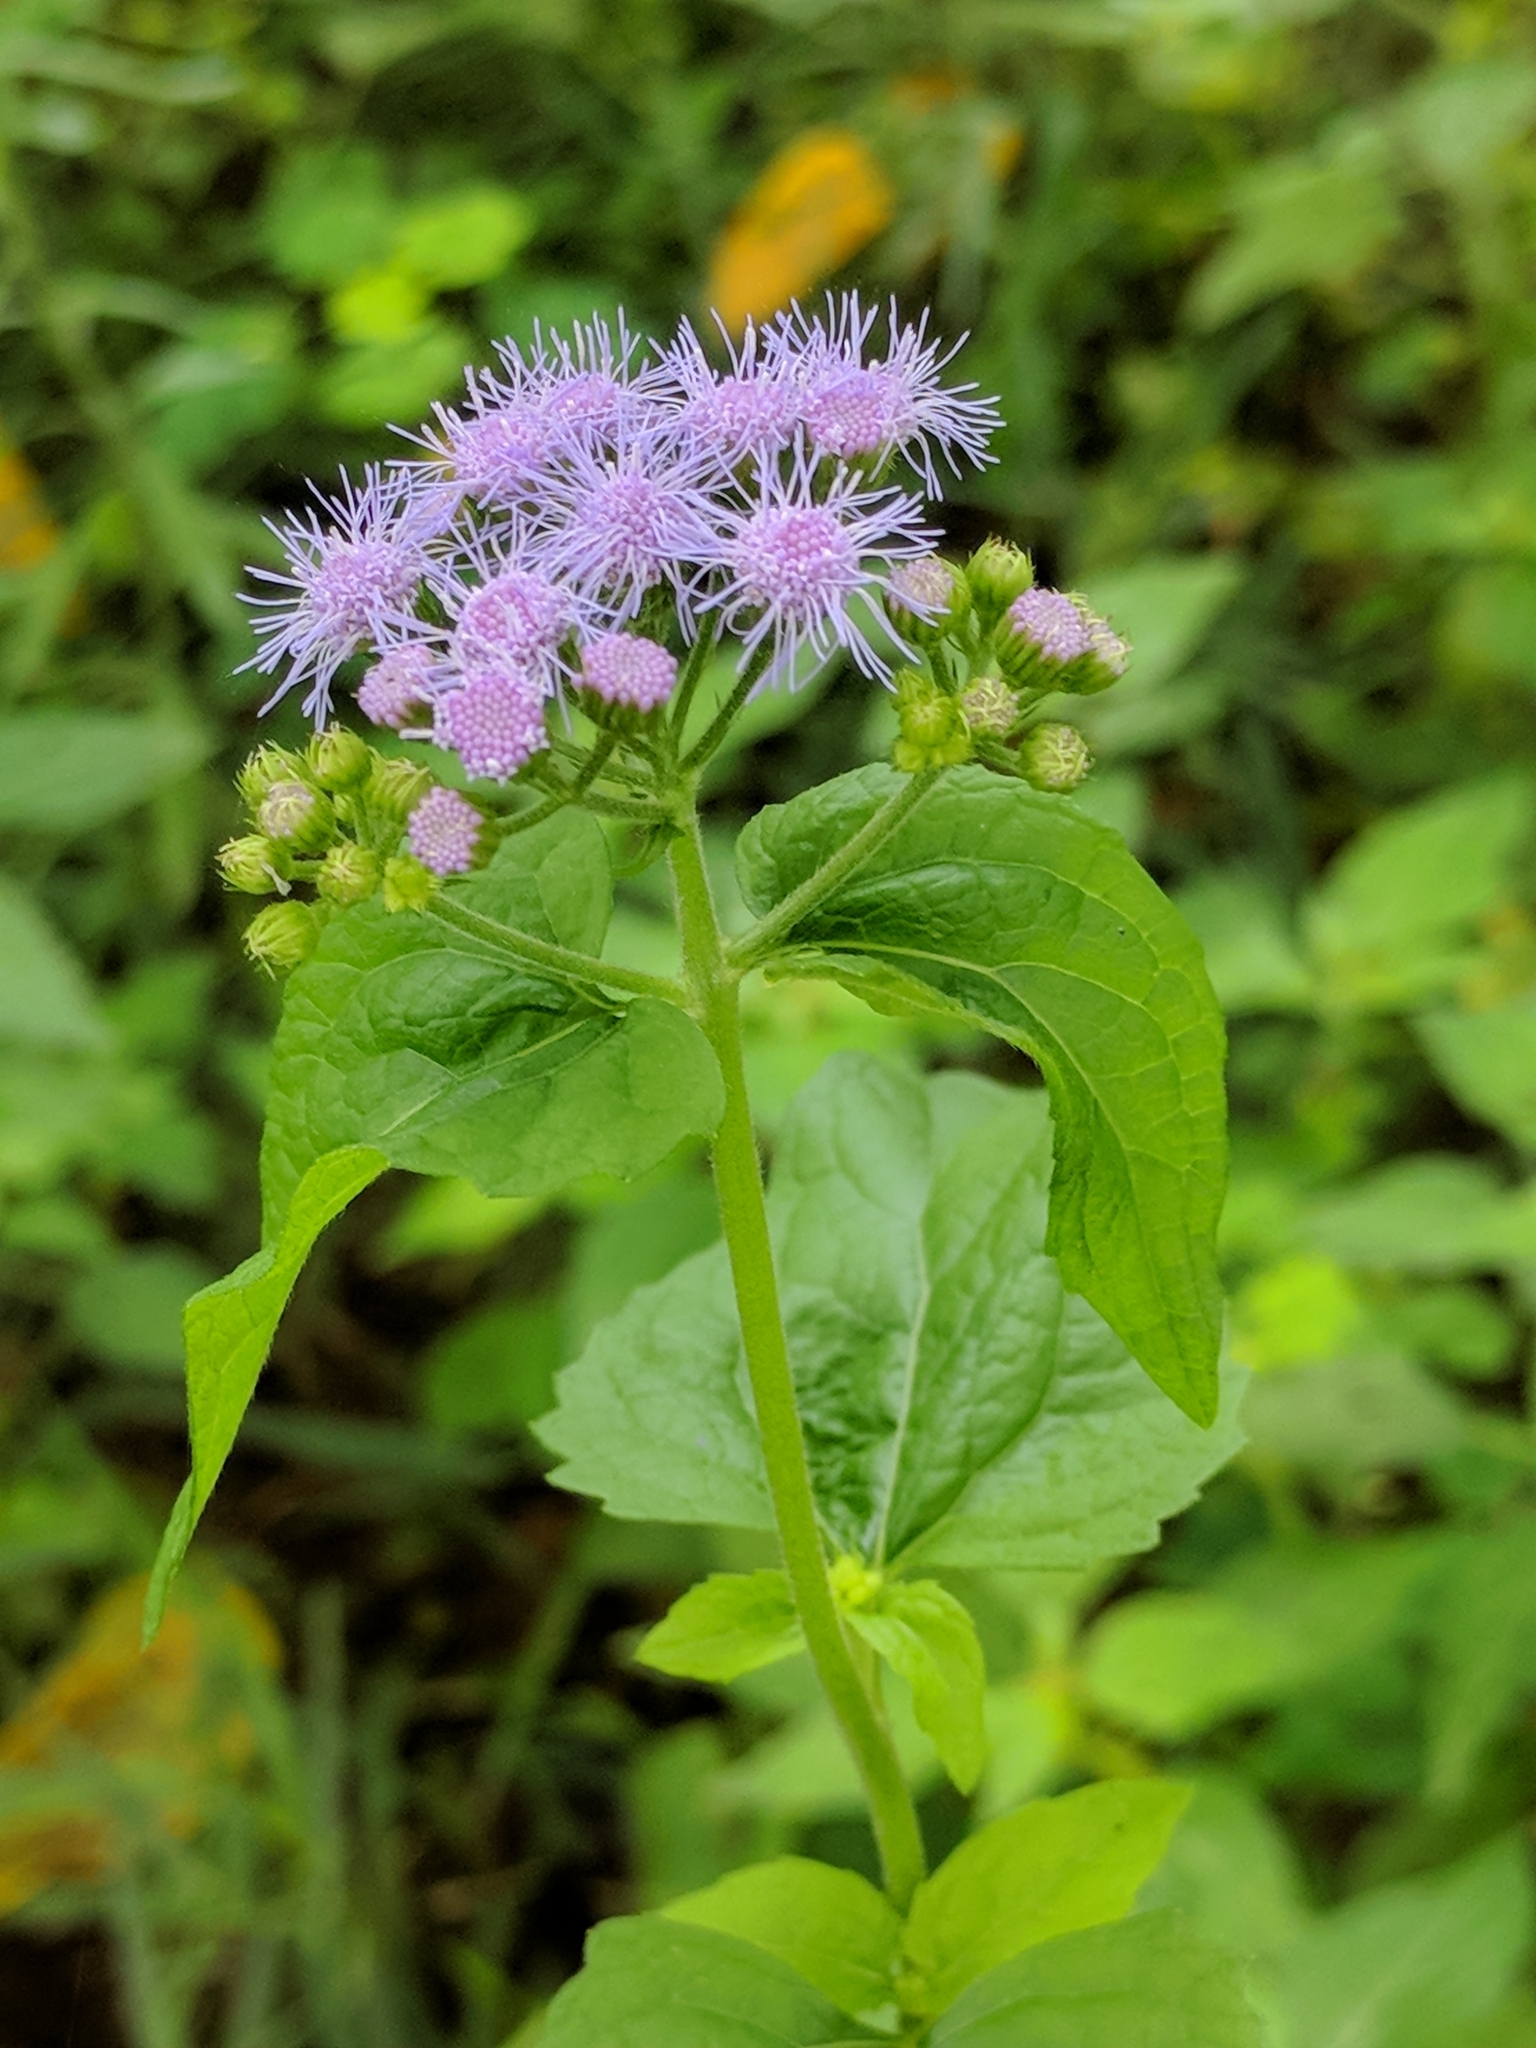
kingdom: Plantae
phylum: Tracheophyta
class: Magnoliopsida
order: Asterales
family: Asteraceae
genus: Conoclinium
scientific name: Conoclinium coelestinum
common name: Blue mistflower
